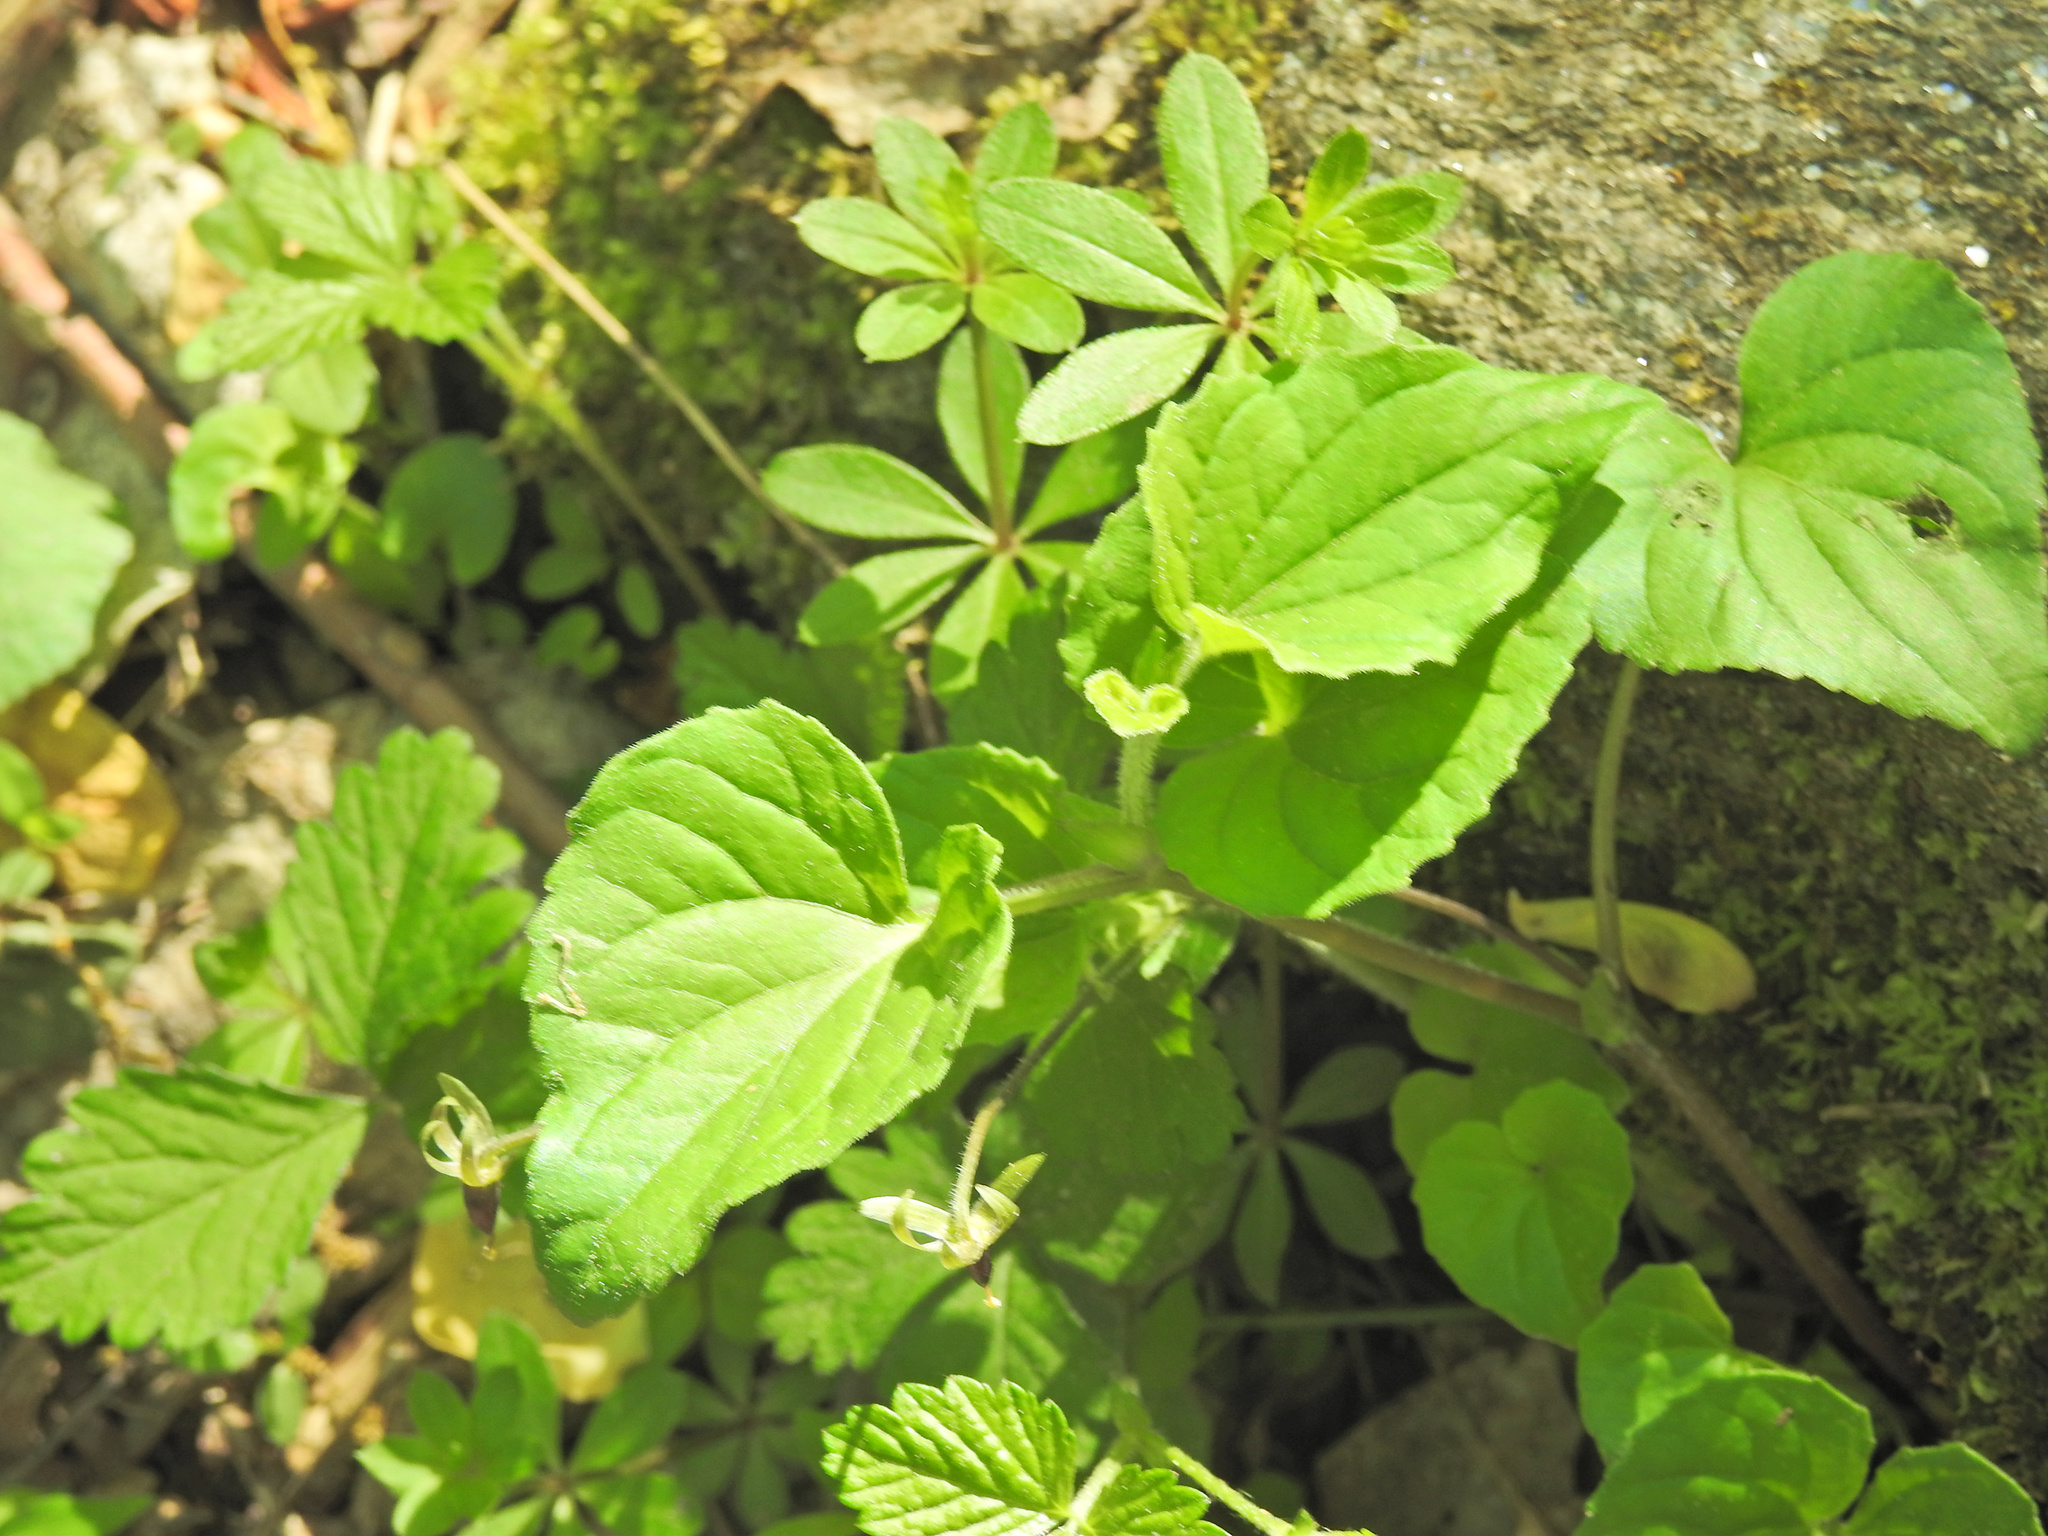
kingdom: Plantae
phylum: Tracheophyta
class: Magnoliopsida
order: Malpighiales
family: Violaceae
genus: Viola
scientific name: Viola eriocarpa
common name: Smooth yellow violet
